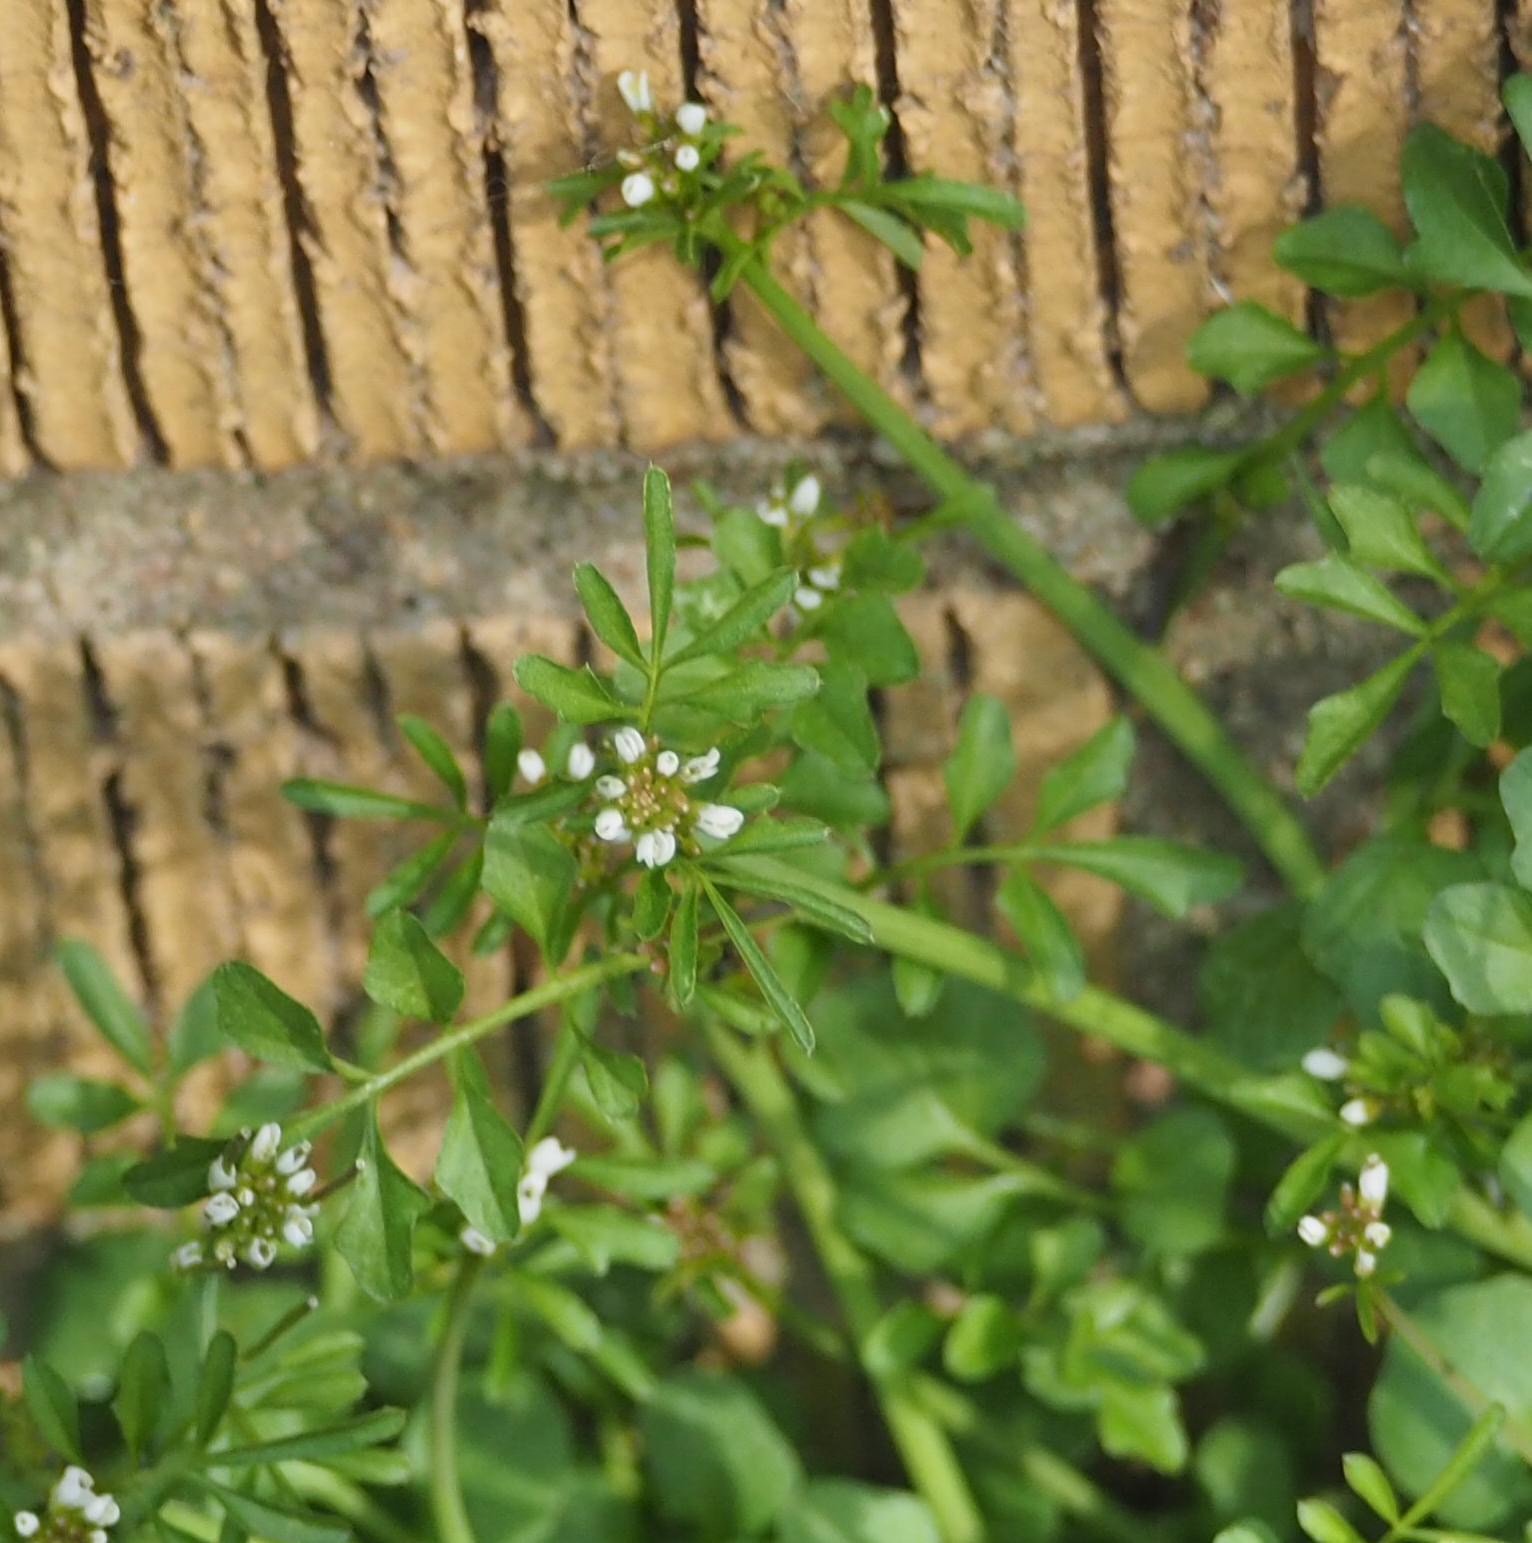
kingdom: Plantae
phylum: Tracheophyta
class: Magnoliopsida
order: Brassicales
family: Brassicaceae
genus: Cardamine
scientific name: Cardamine hirsuta
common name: Hairy bittercress
